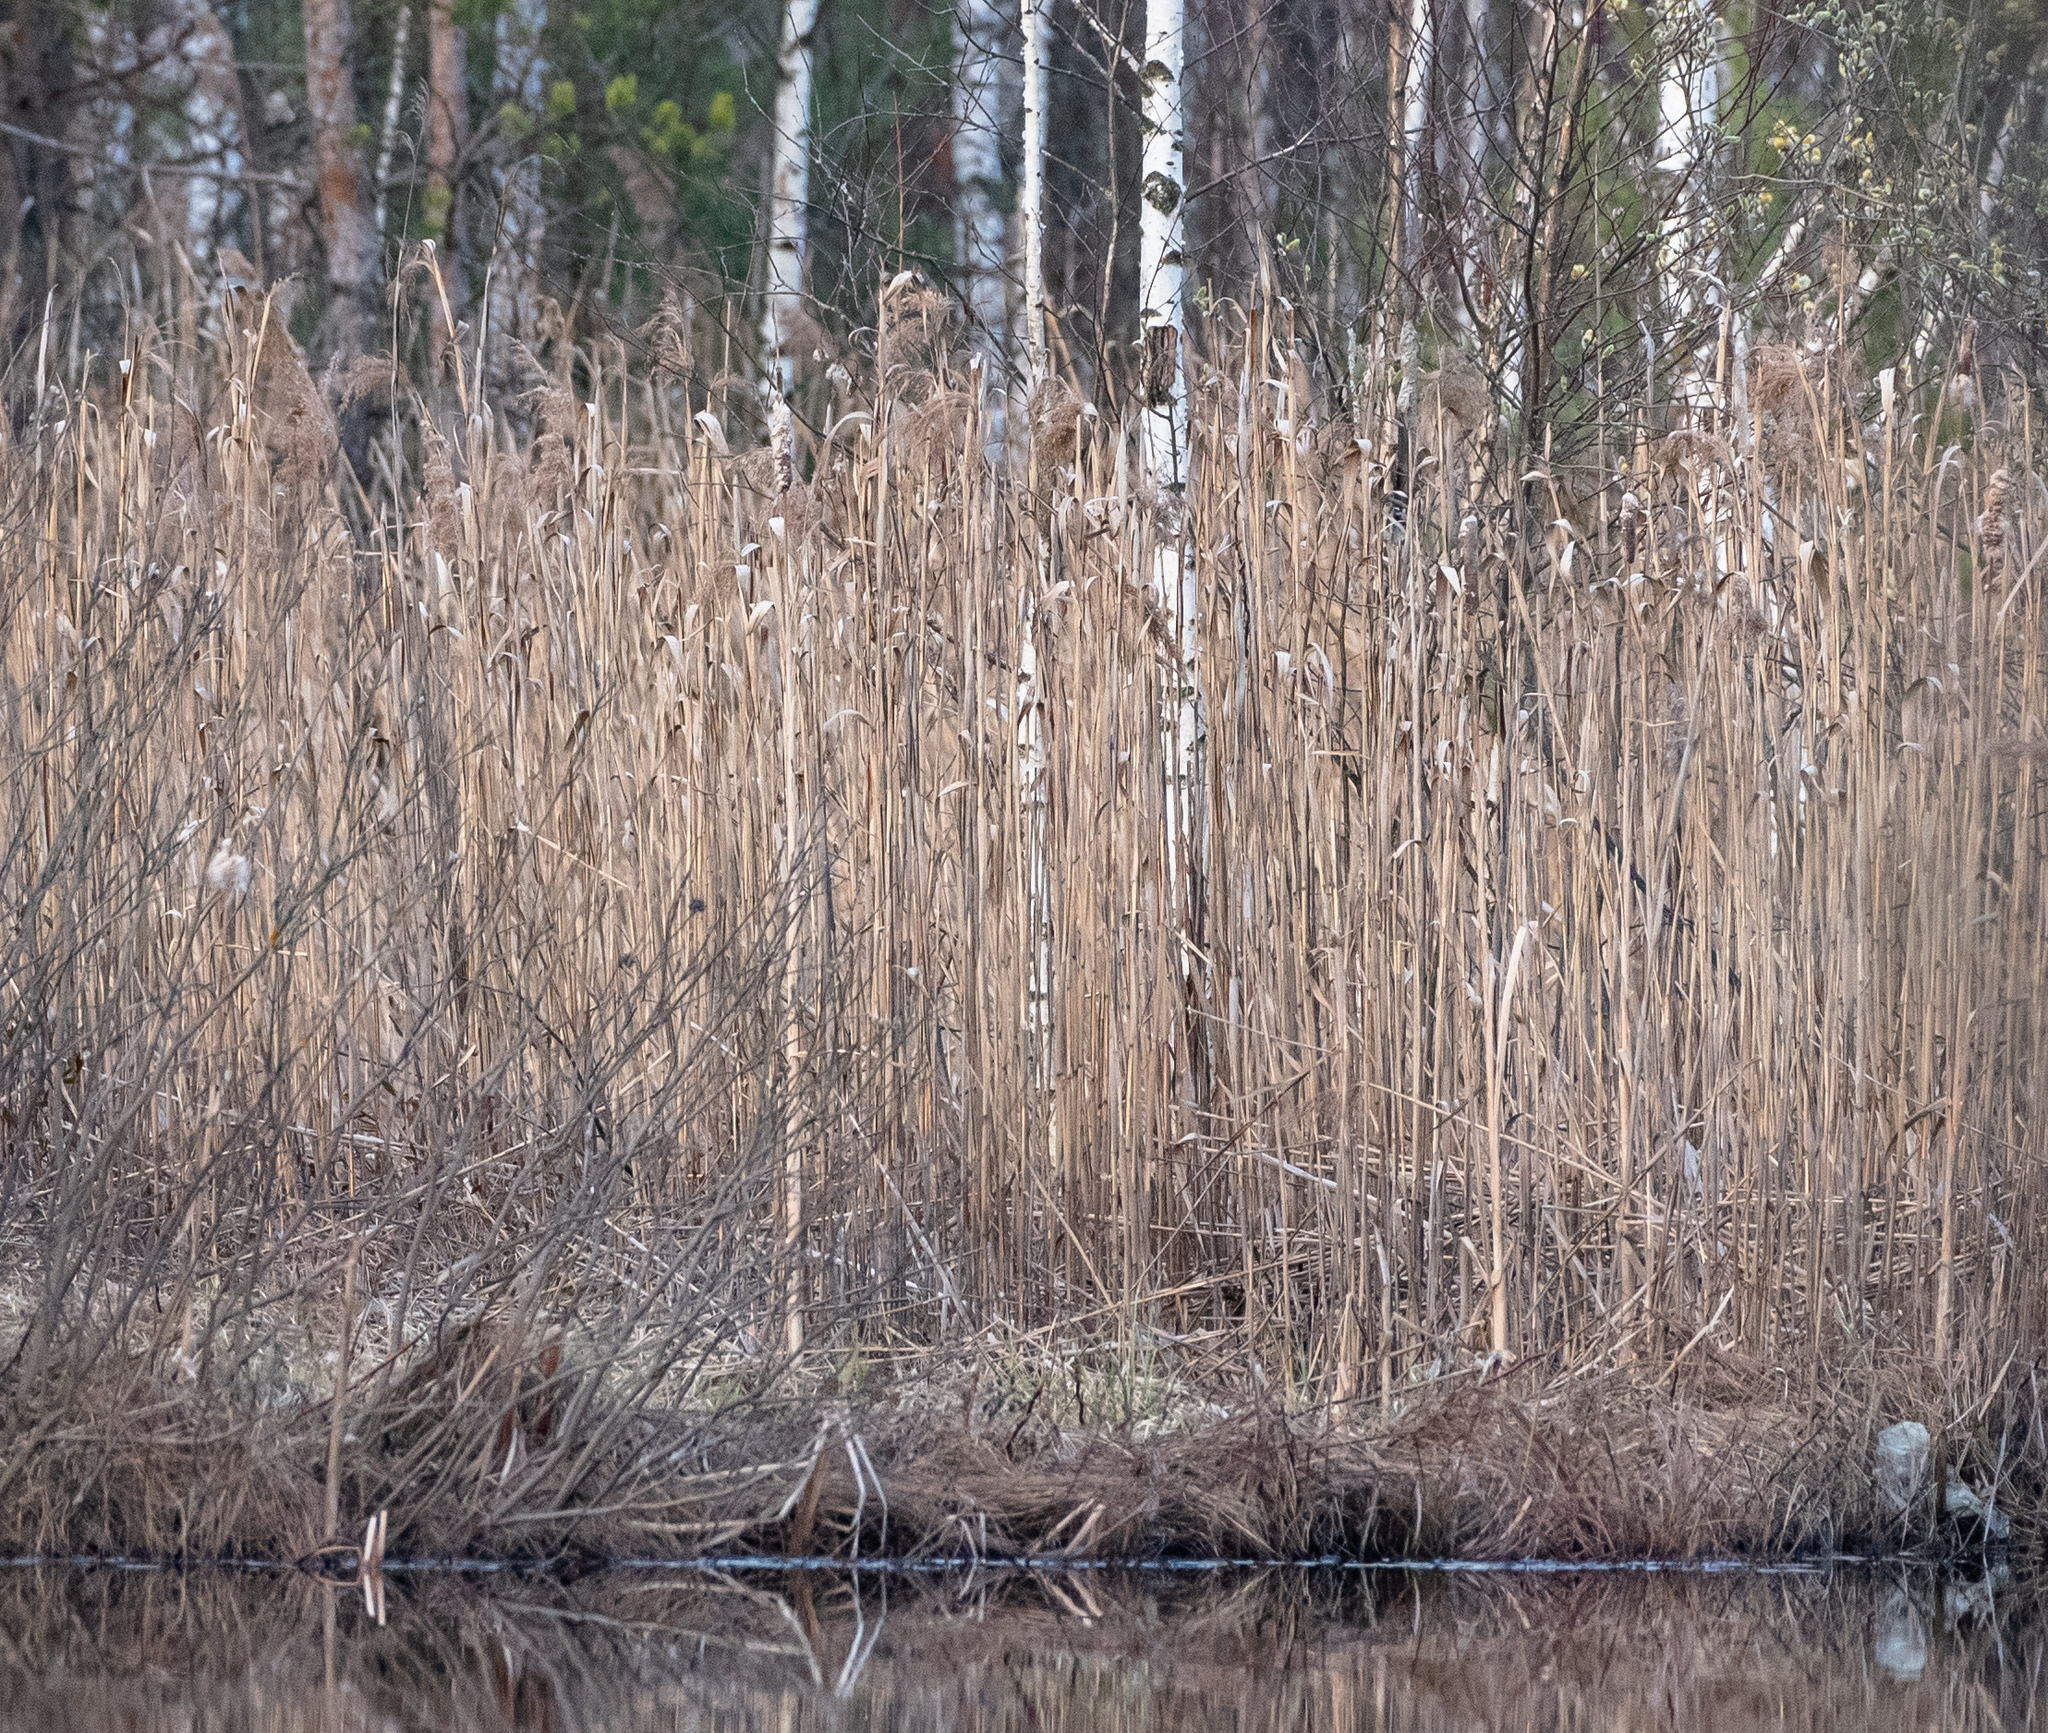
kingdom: Plantae
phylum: Tracheophyta
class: Liliopsida
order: Poales
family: Poaceae
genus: Phragmites
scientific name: Phragmites australis
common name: Common reed
